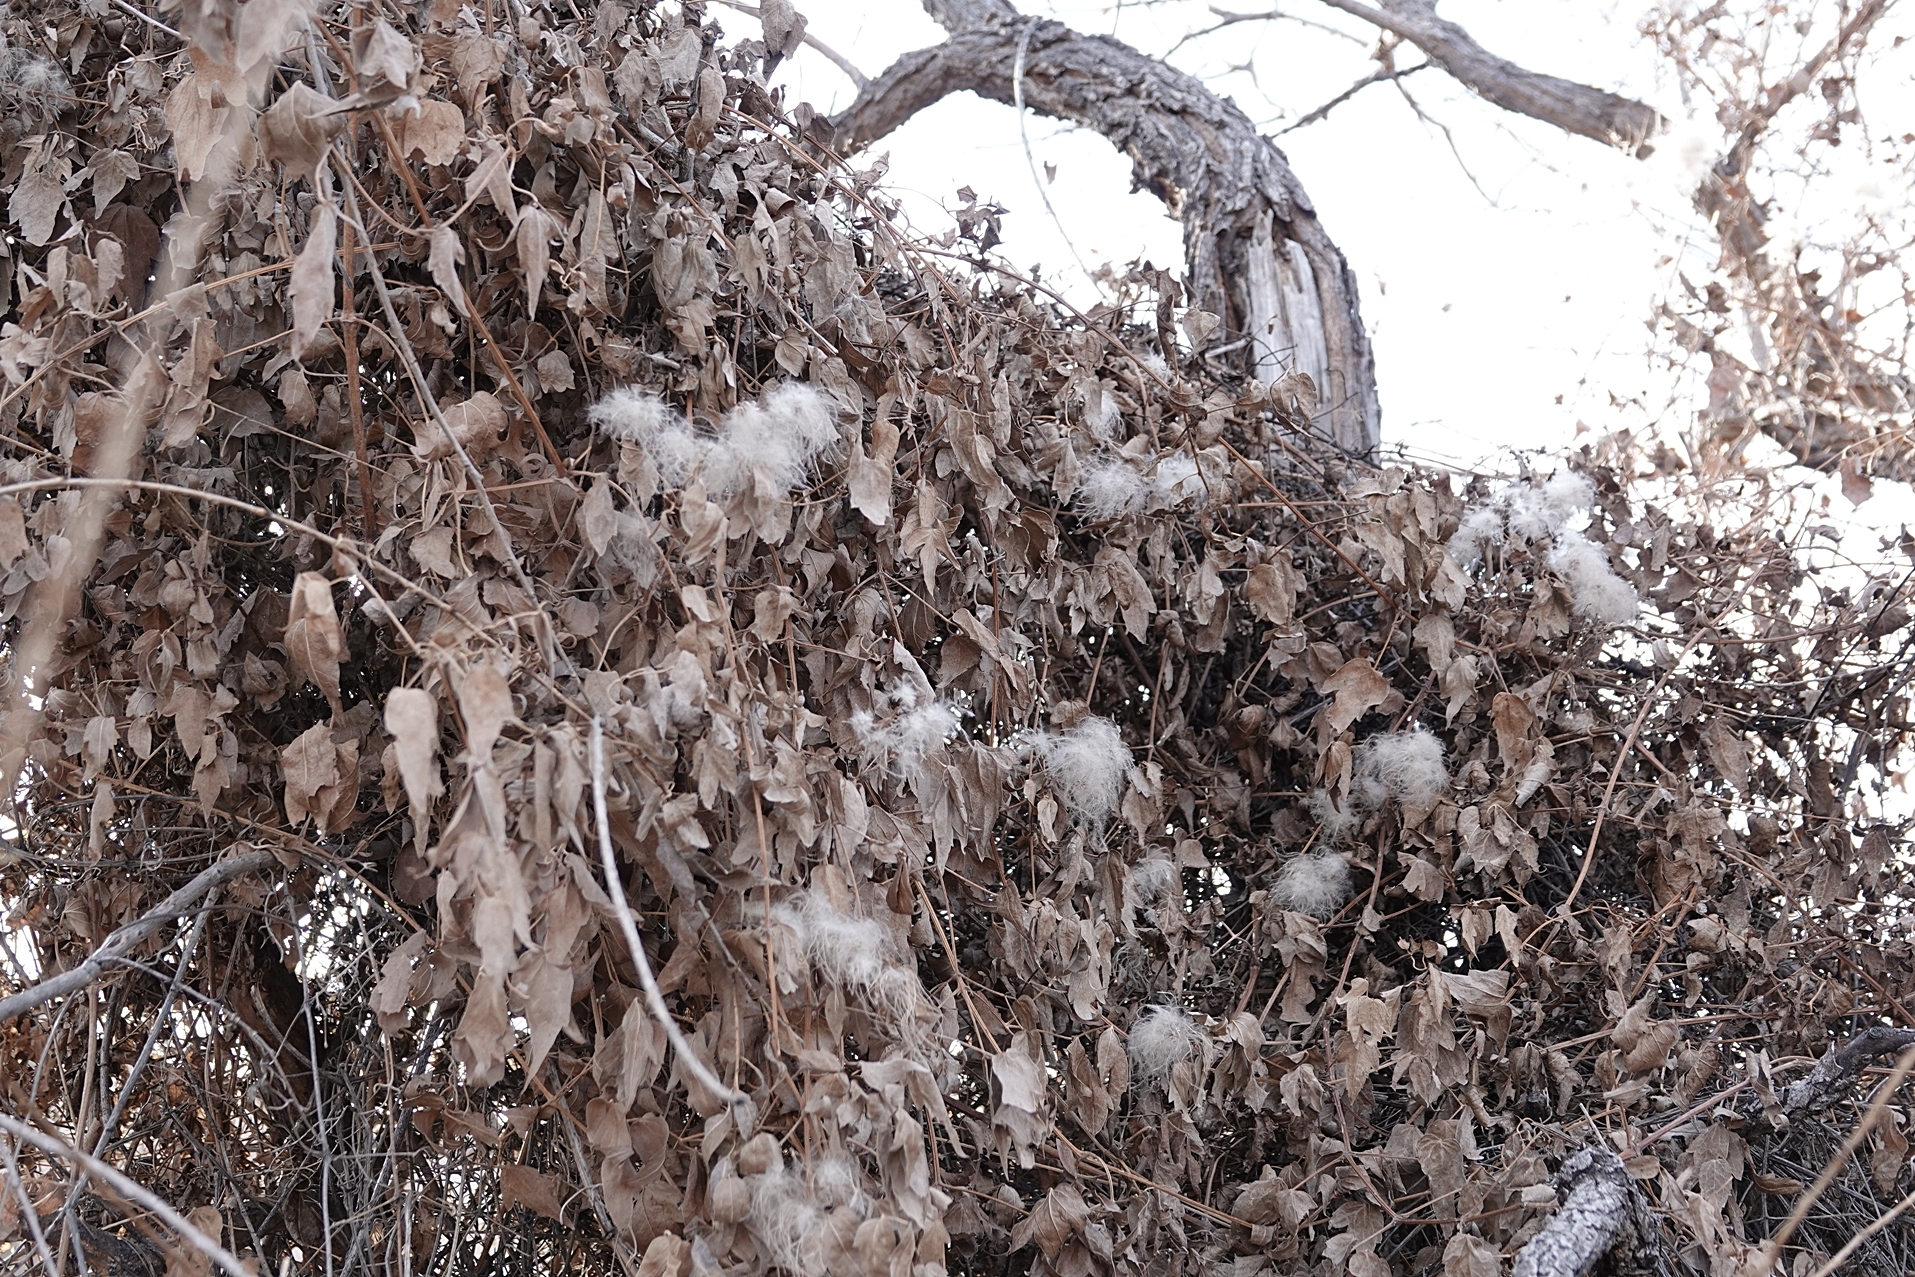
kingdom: Plantae
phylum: Tracheophyta
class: Magnoliopsida
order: Ranunculales
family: Ranunculaceae
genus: Clematis
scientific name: Clematis ligusticifolia
